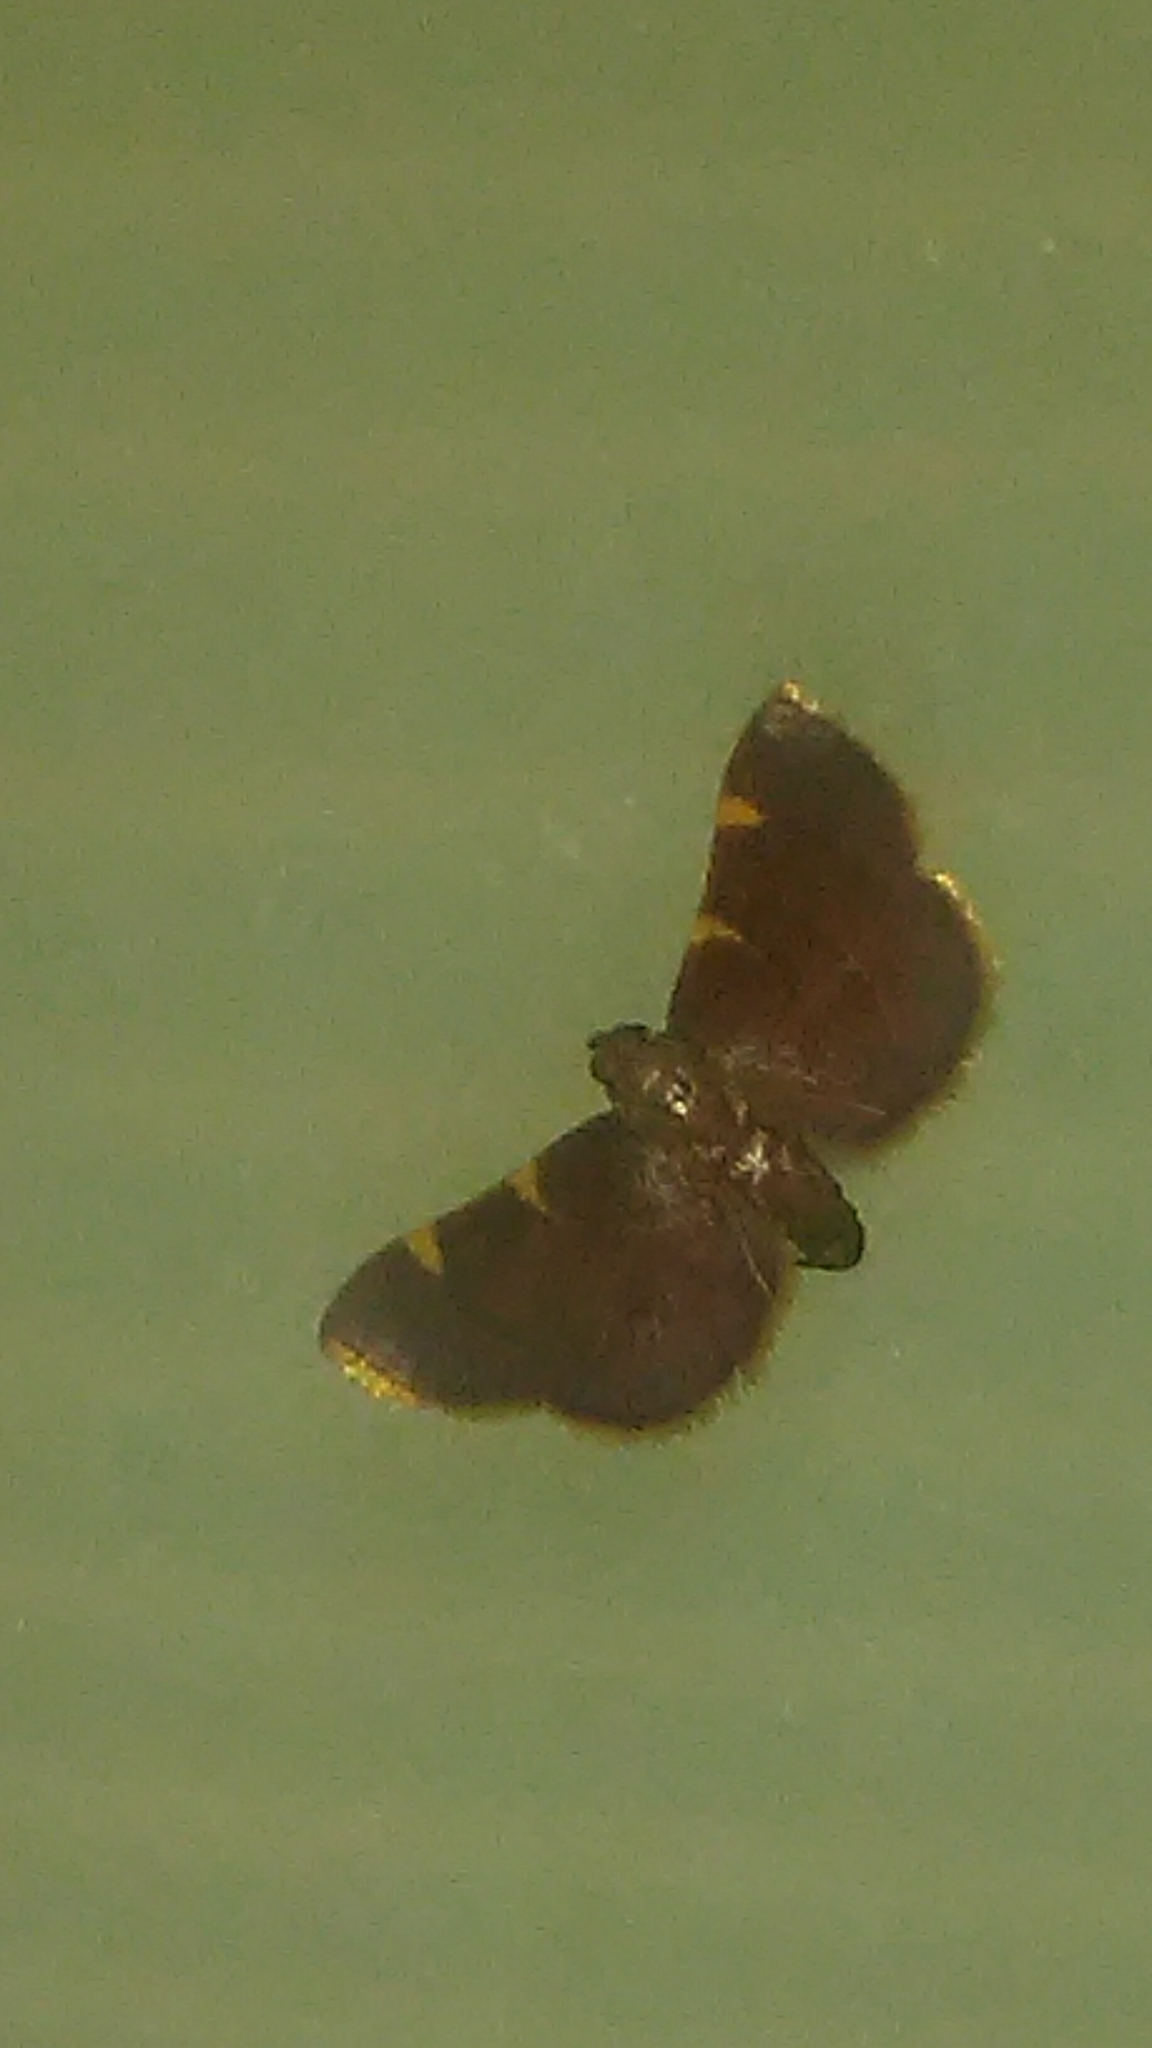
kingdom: Animalia
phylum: Arthropoda
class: Insecta
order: Lepidoptera
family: Pyralidae
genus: Hypsopygia
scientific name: Hypsopygia olinalis
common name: Yellow-fringed dolichomia moth
